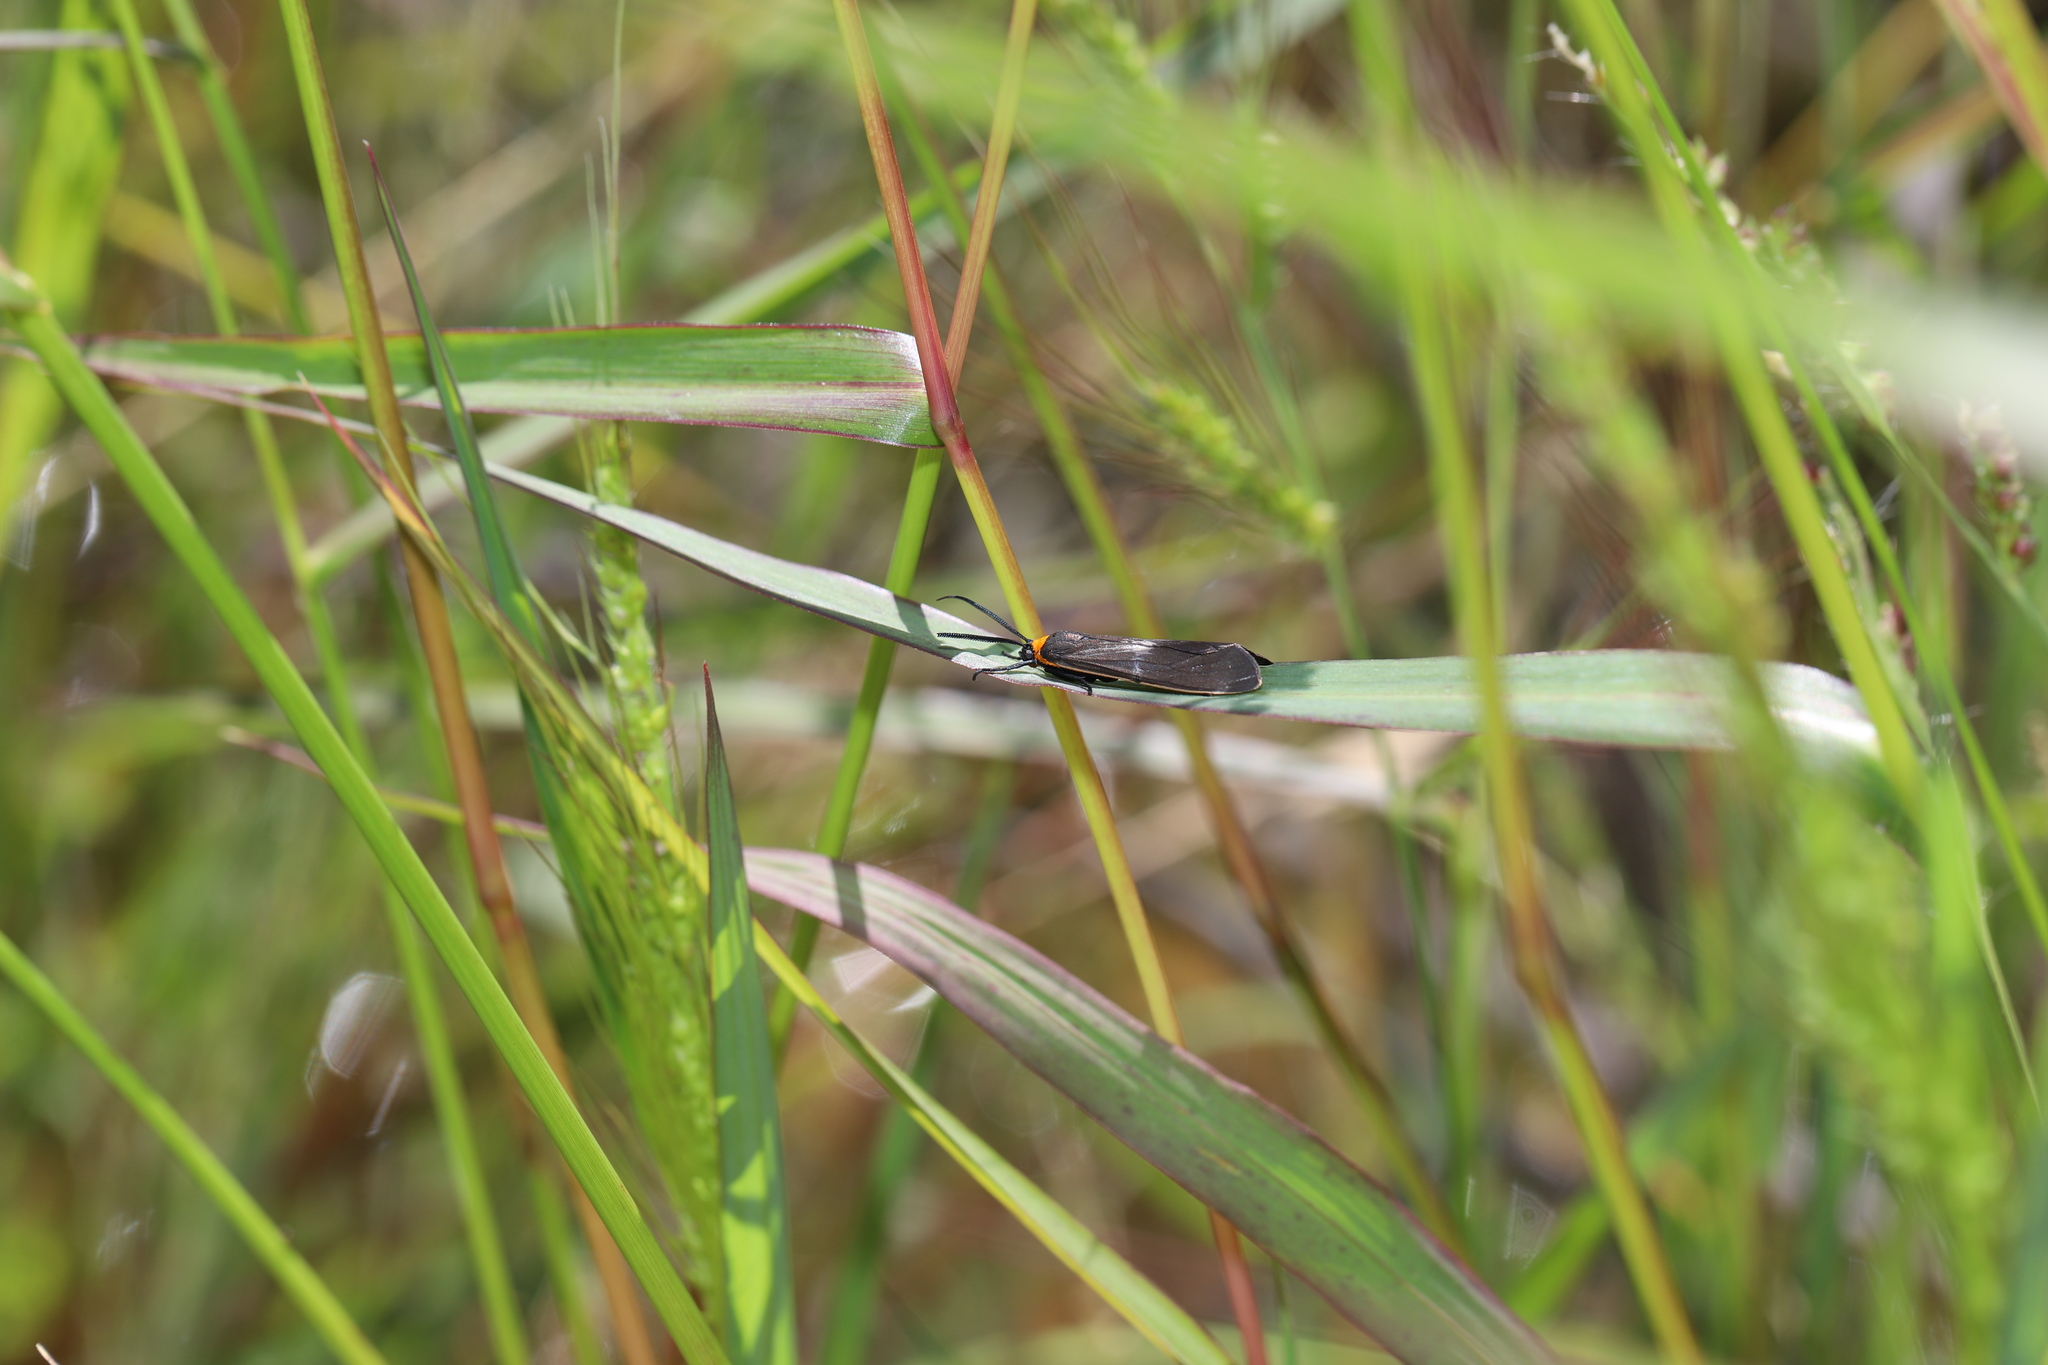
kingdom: Animalia
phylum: Arthropoda
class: Insecta
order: Lepidoptera
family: Erebidae
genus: Cisseps
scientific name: Cisseps fulvicollis
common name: Yellow-collared scape moth
